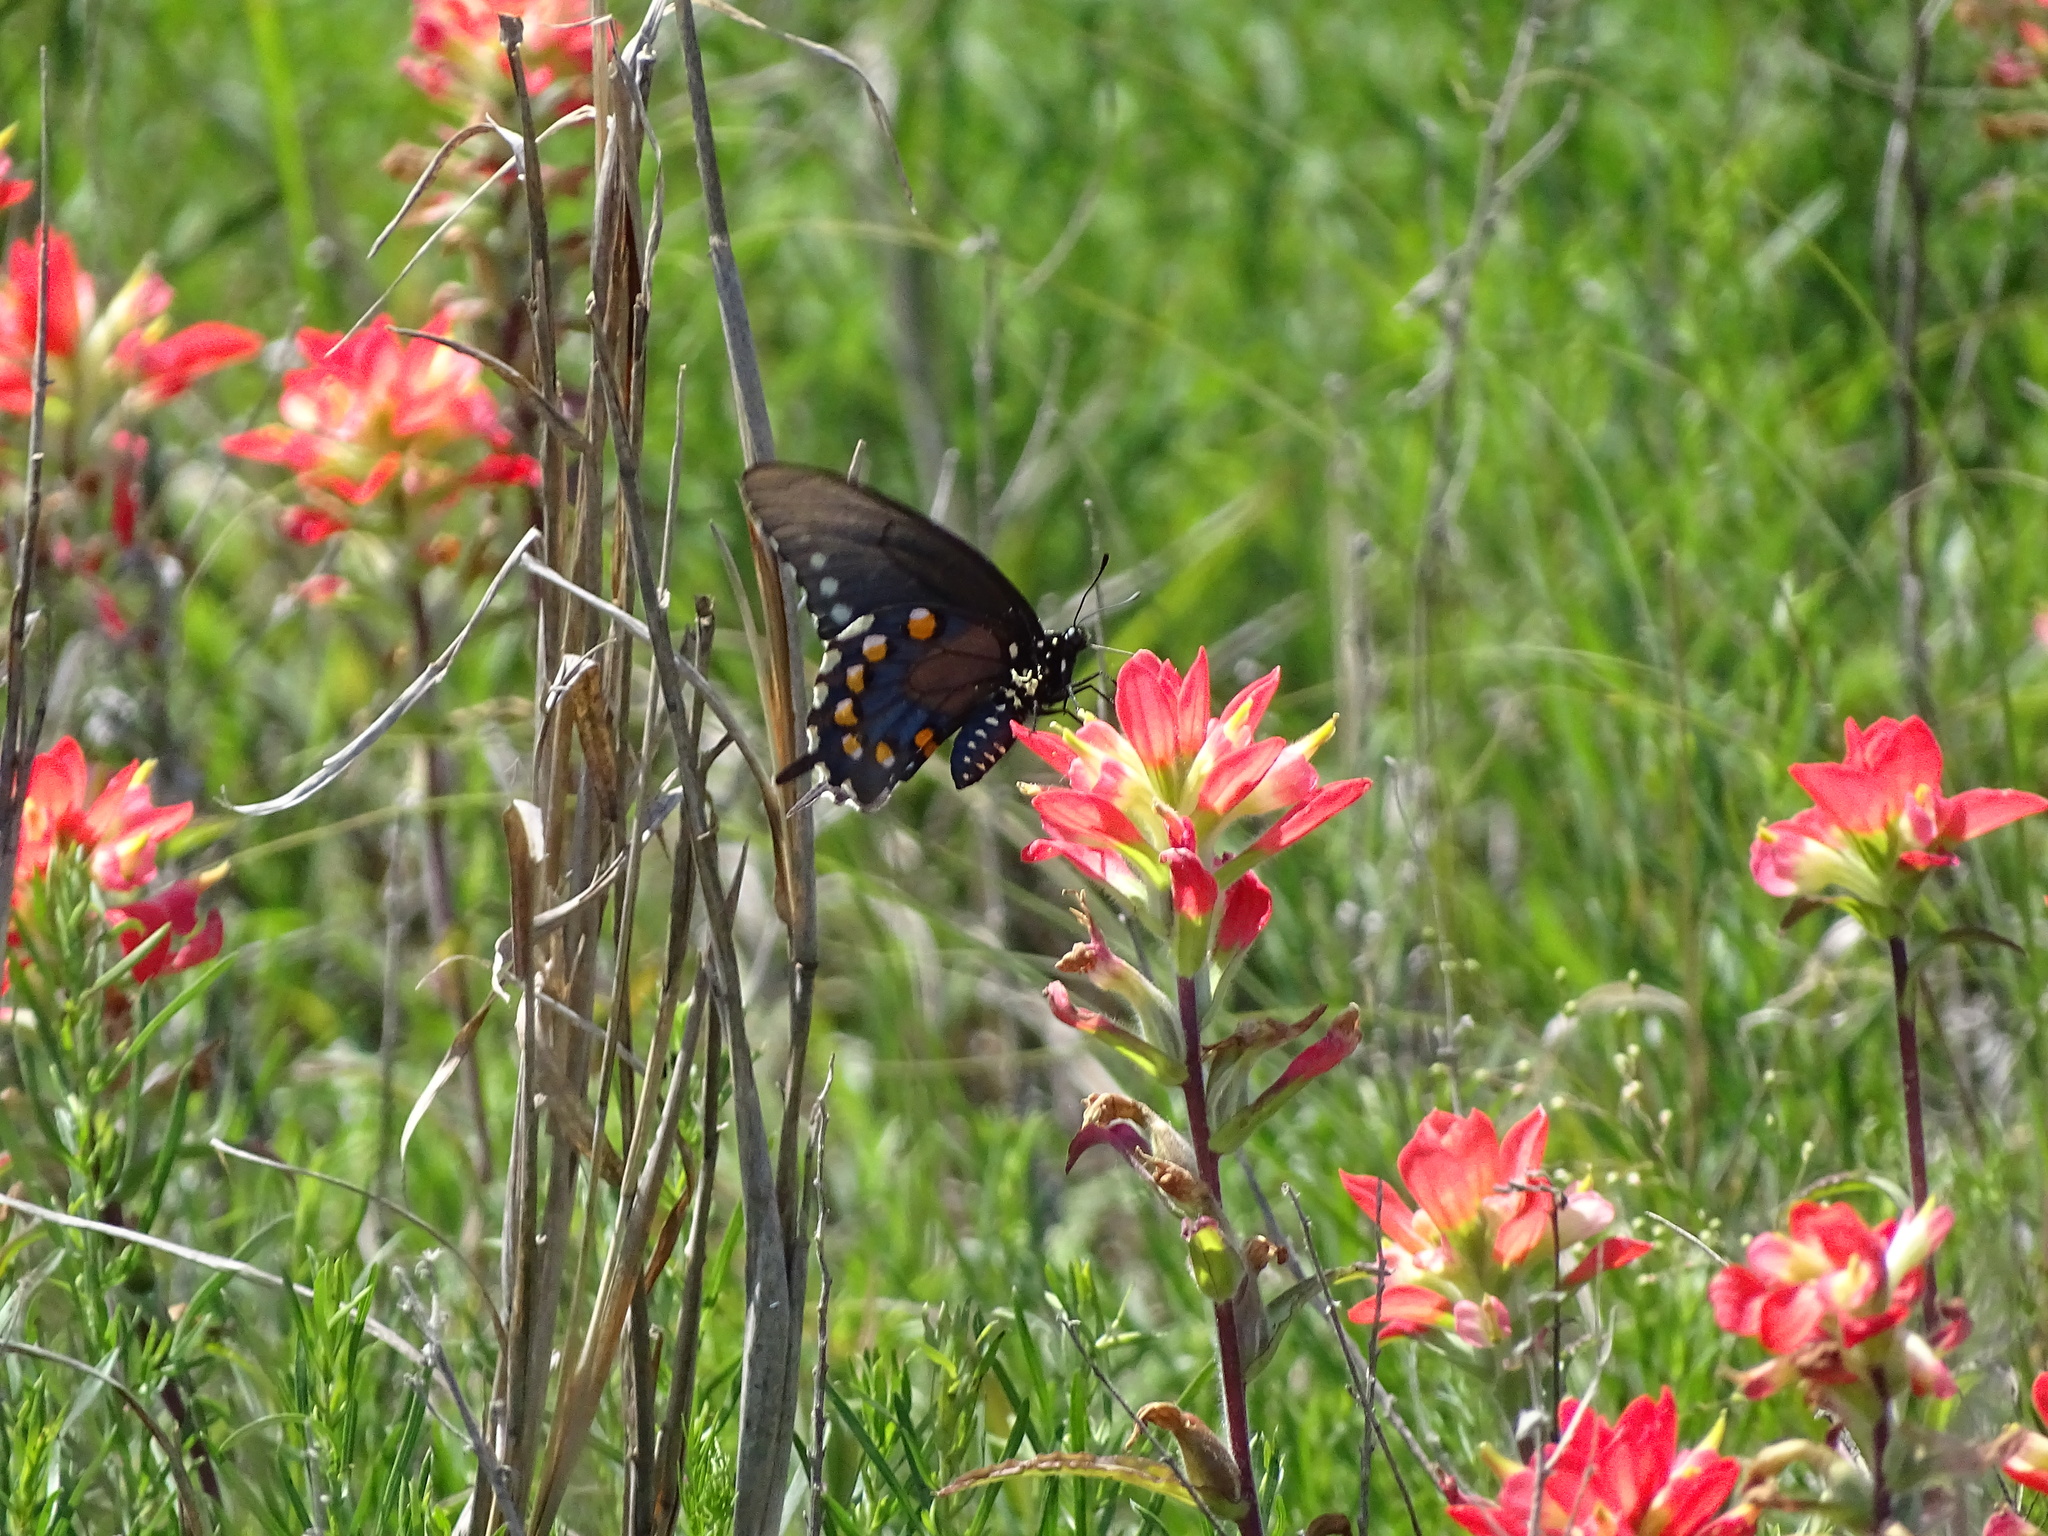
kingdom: Animalia
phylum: Arthropoda
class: Insecta
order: Lepidoptera
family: Papilionidae
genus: Battus
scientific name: Battus philenor
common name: Pipevine swallowtail
